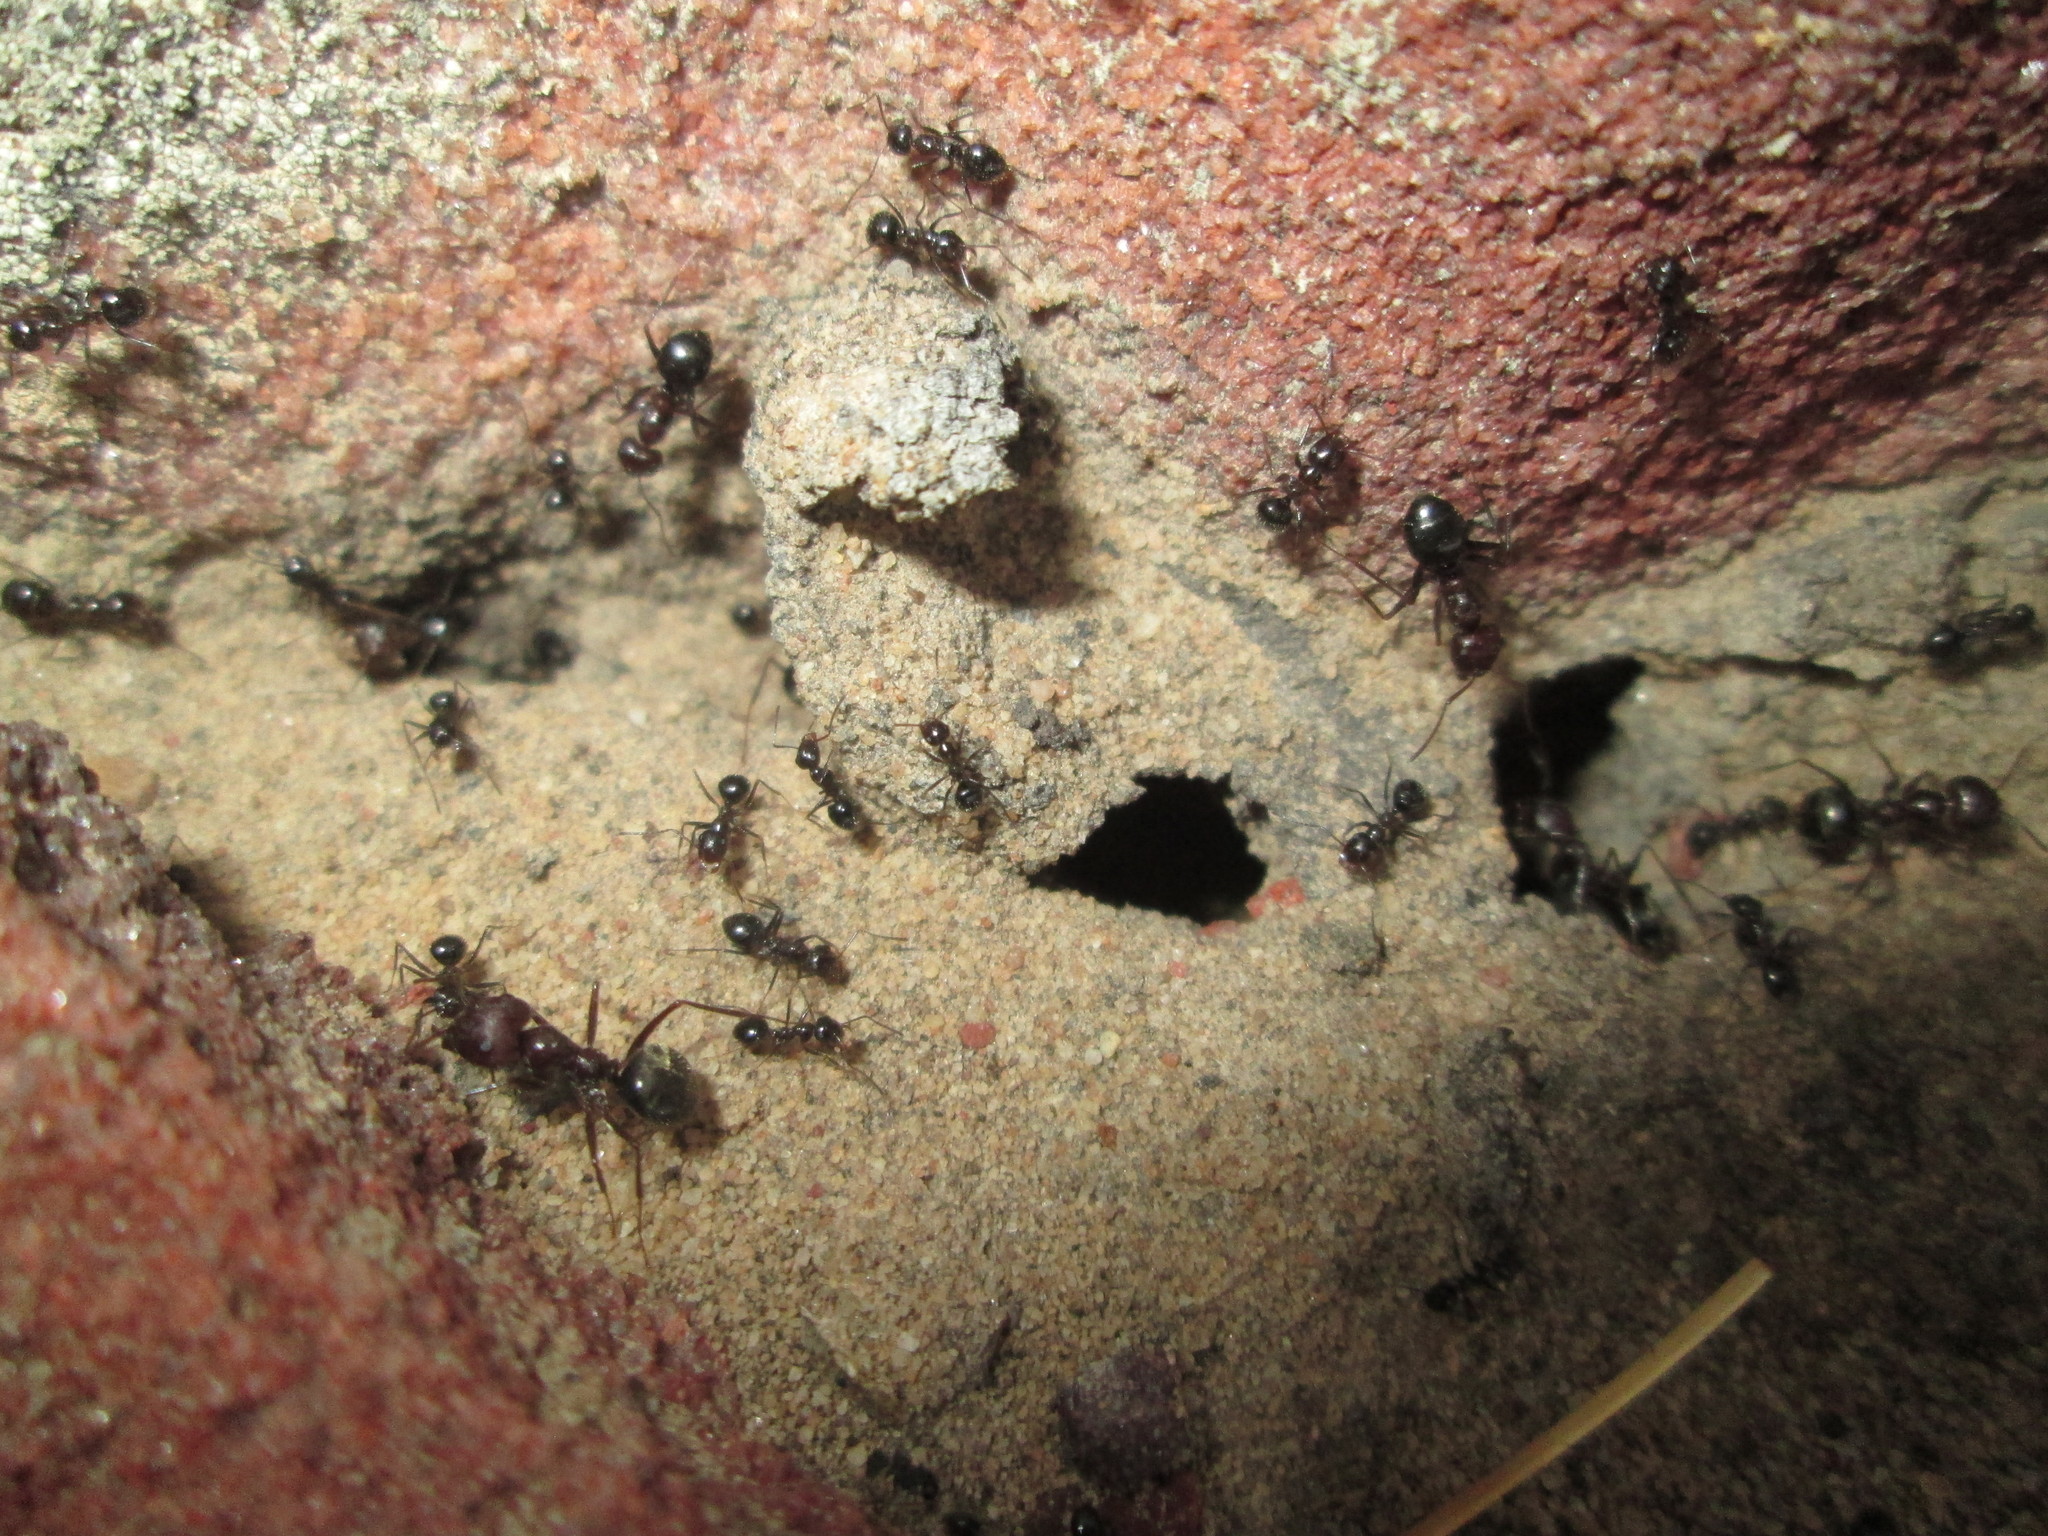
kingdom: Animalia
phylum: Arthropoda
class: Insecta
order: Hymenoptera
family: Formicidae
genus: Anoplolepis
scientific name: Anoplolepis steingroeveri
